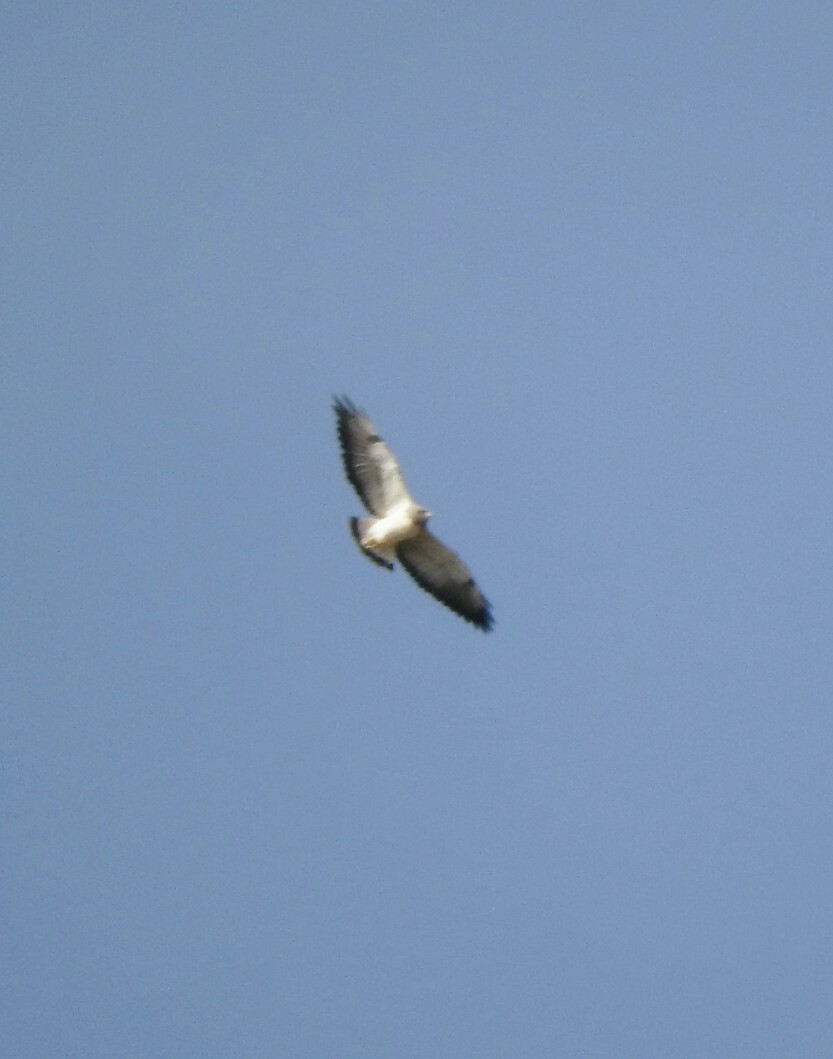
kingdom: Animalia
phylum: Chordata
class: Aves
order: Accipitriformes
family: Accipitridae
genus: Buteo
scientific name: Buteo albicaudatus
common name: White-tailed hawk
